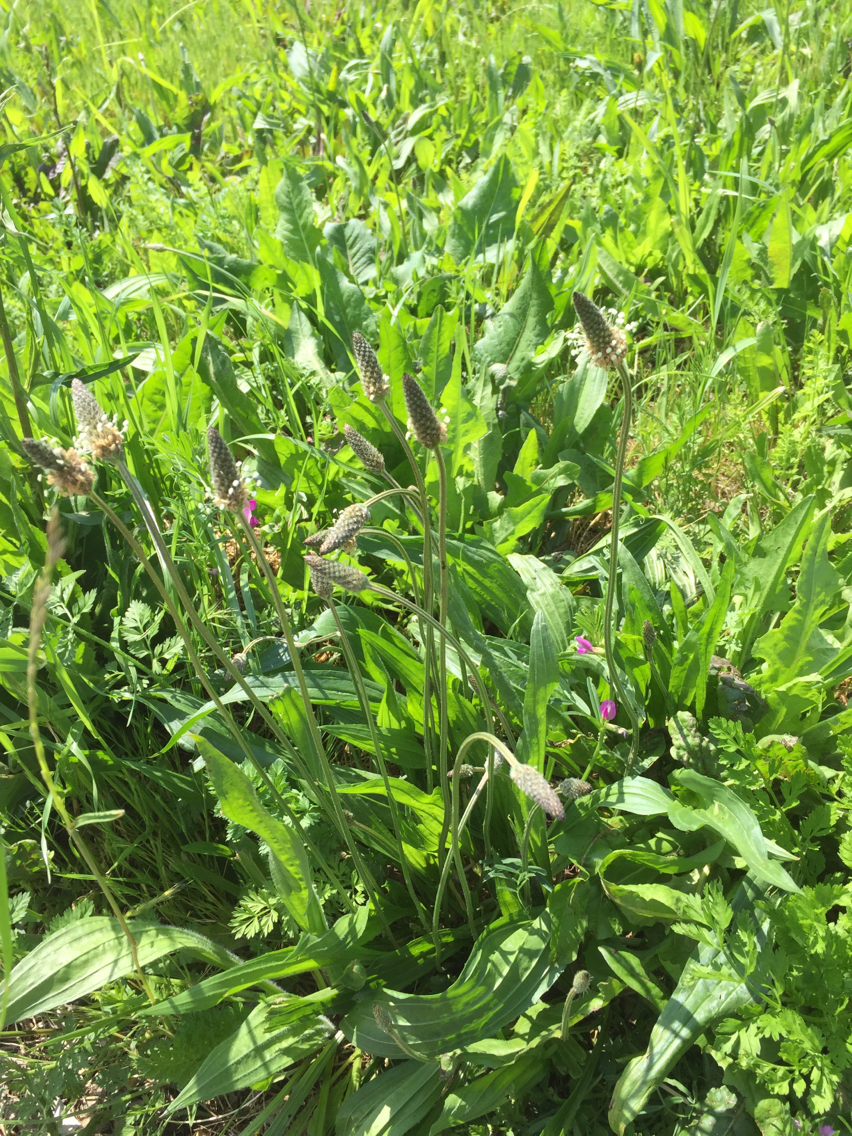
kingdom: Plantae
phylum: Tracheophyta
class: Magnoliopsida
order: Lamiales
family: Plantaginaceae
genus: Plantago
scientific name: Plantago lanceolata
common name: Ribwort plantain
